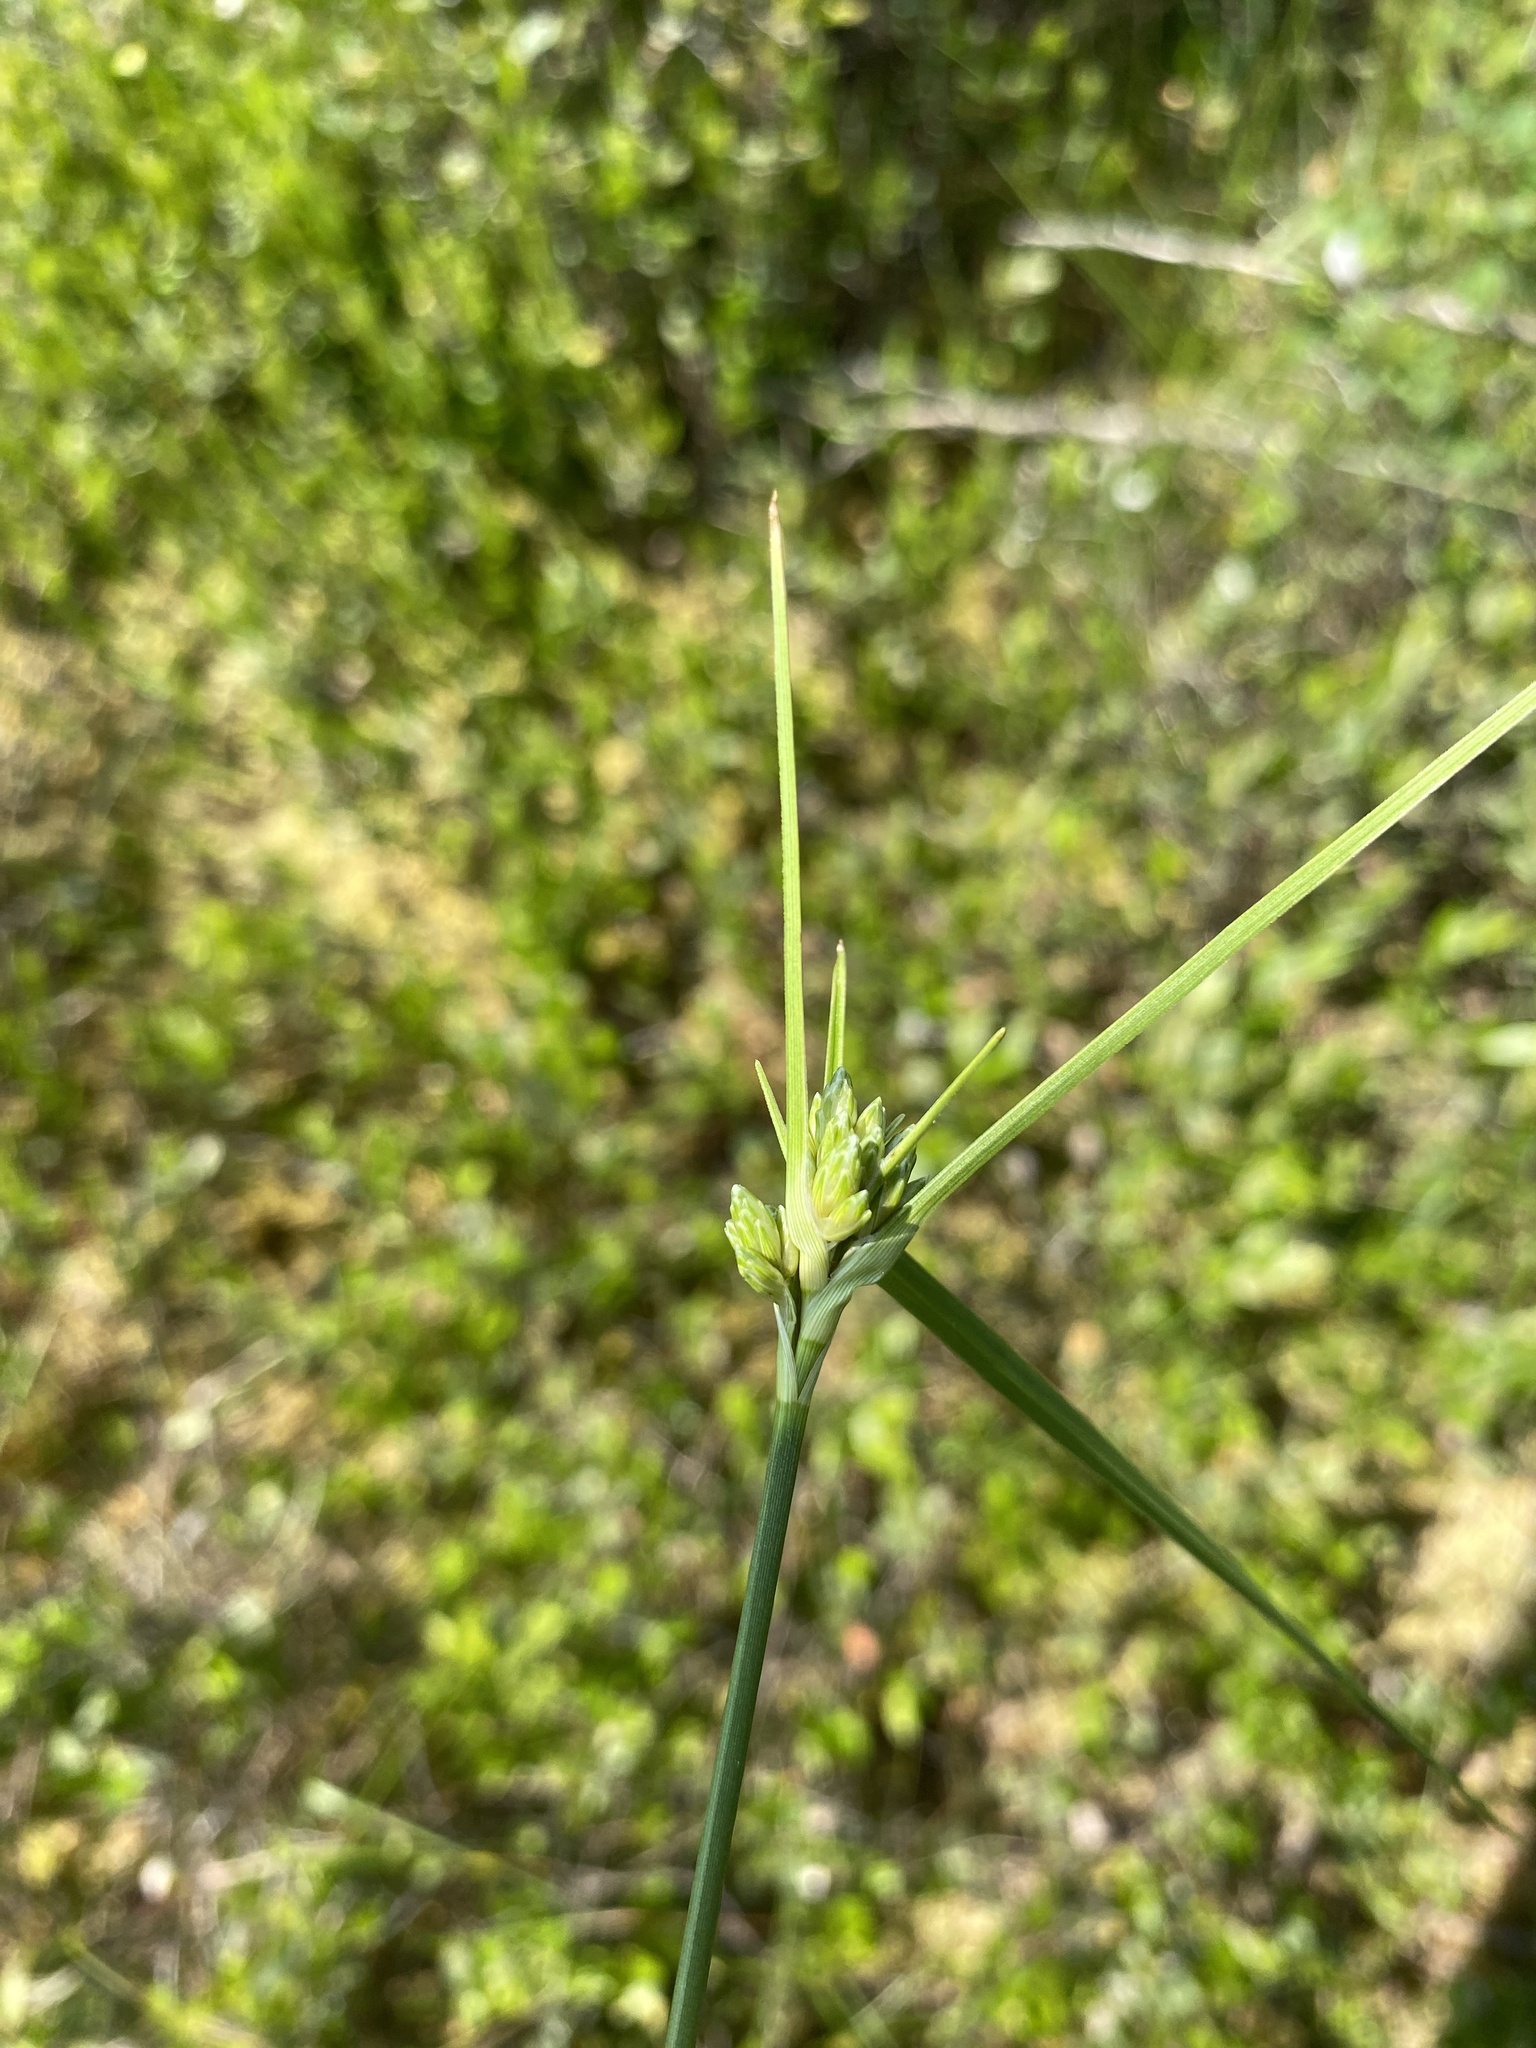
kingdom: Plantae
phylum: Tracheophyta
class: Liliopsida
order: Poales
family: Cyperaceae
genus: Eriophorum
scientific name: Eriophorum virginicum
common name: Tawny cottongrass
